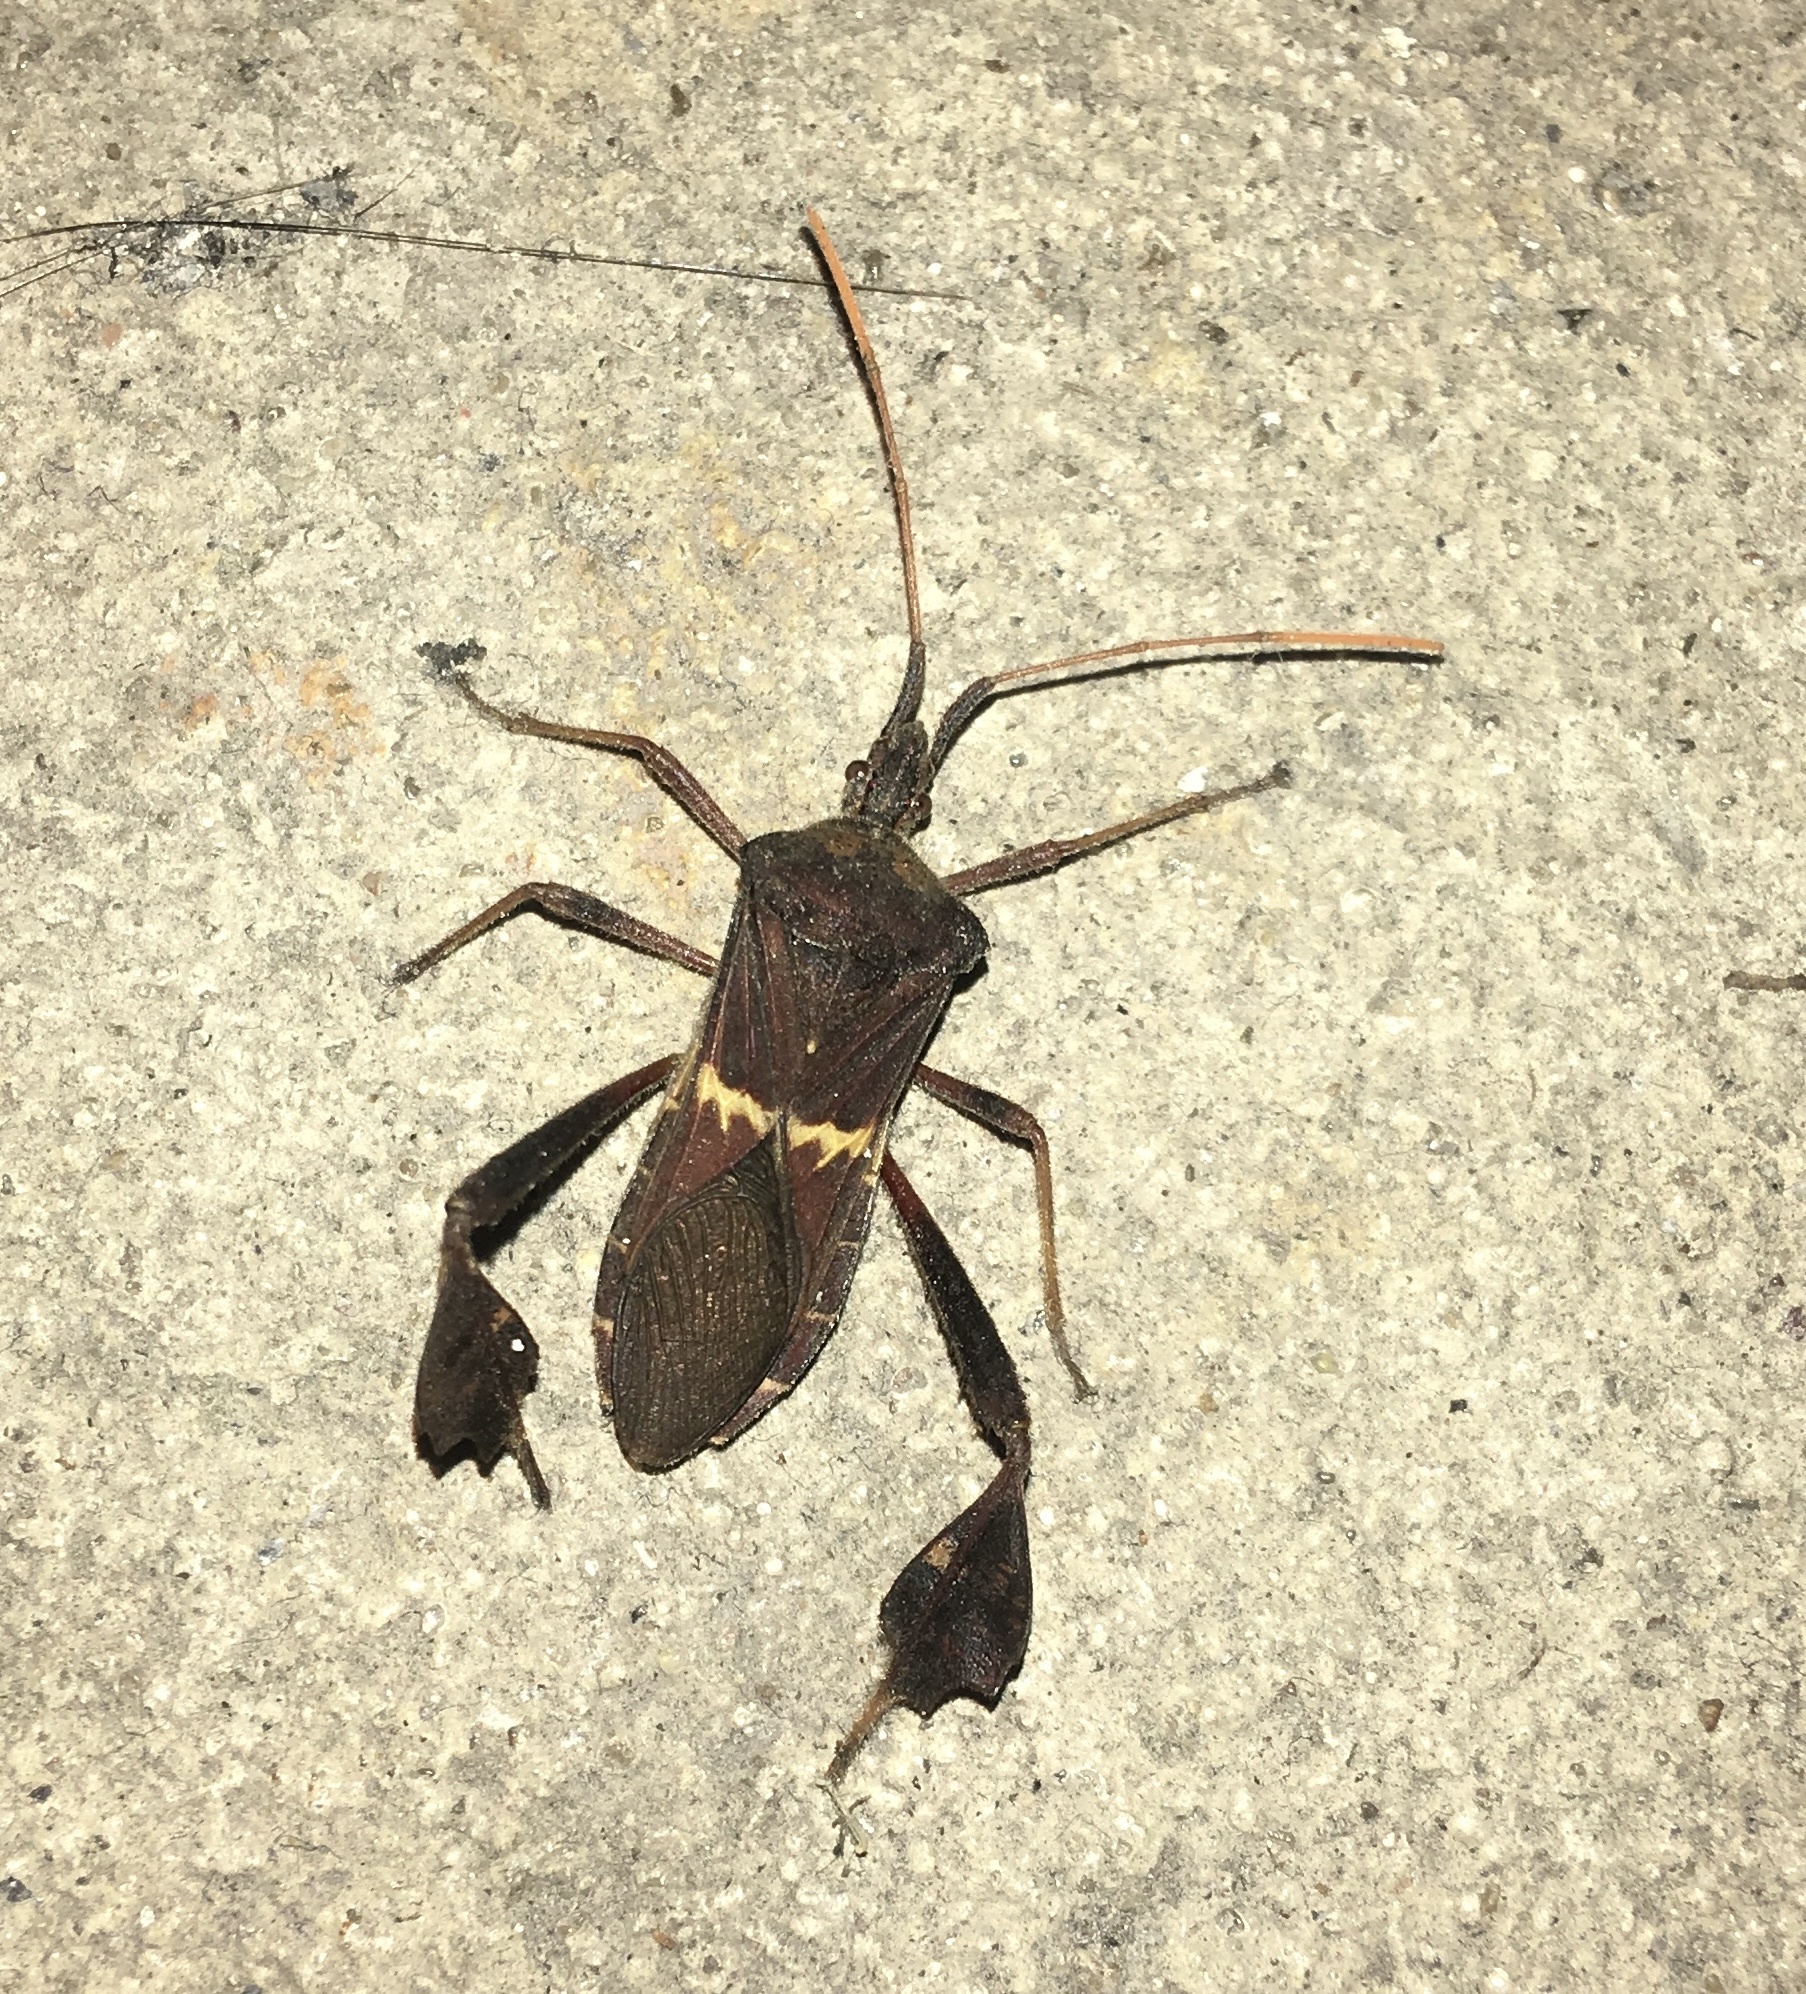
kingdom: Animalia
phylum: Arthropoda
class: Insecta
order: Hemiptera
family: Coreidae
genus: Leptoglossus
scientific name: Leptoglossus zonatus
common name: Large-legged bug
